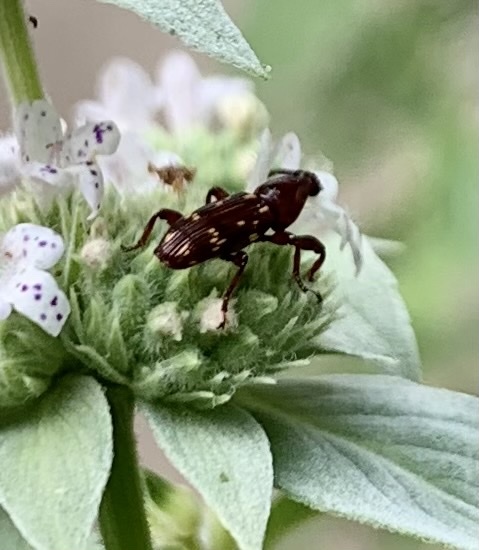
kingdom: Animalia
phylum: Arthropoda
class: Insecta
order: Coleoptera
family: Brentidae
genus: Arrenodes
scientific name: Arrenodes minutus
